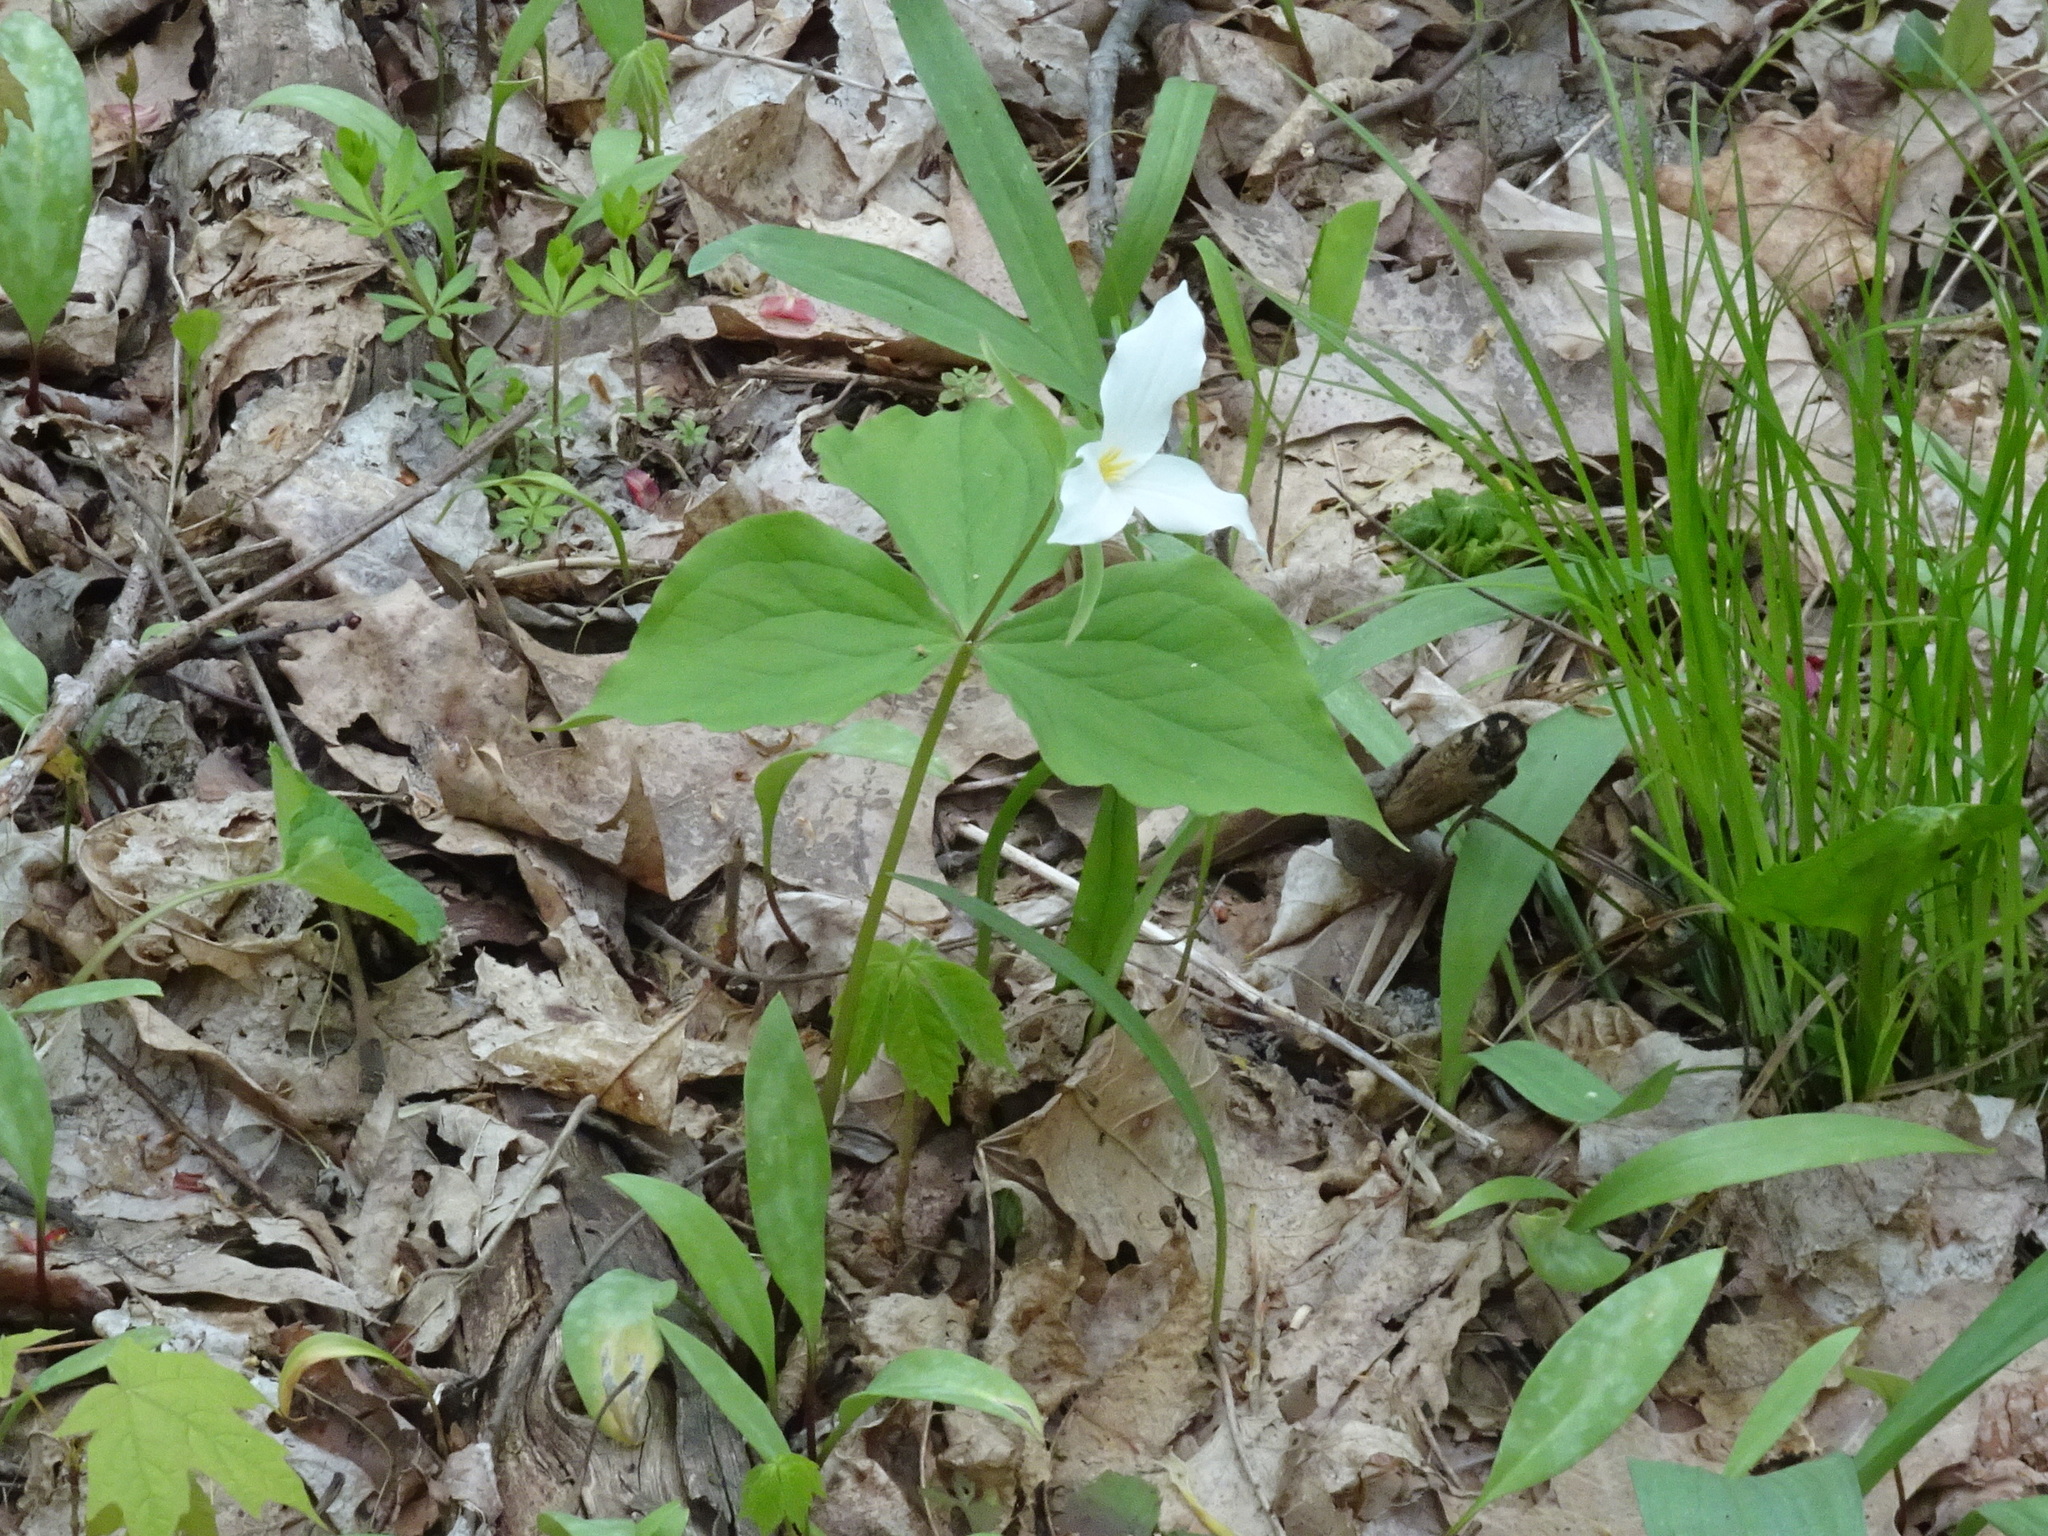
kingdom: Plantae
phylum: Tracheophyta
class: Liliopsida
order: Liliales
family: Melanthiaceae
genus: Trillium
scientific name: Trillium grandiflorum
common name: Great white trillium
